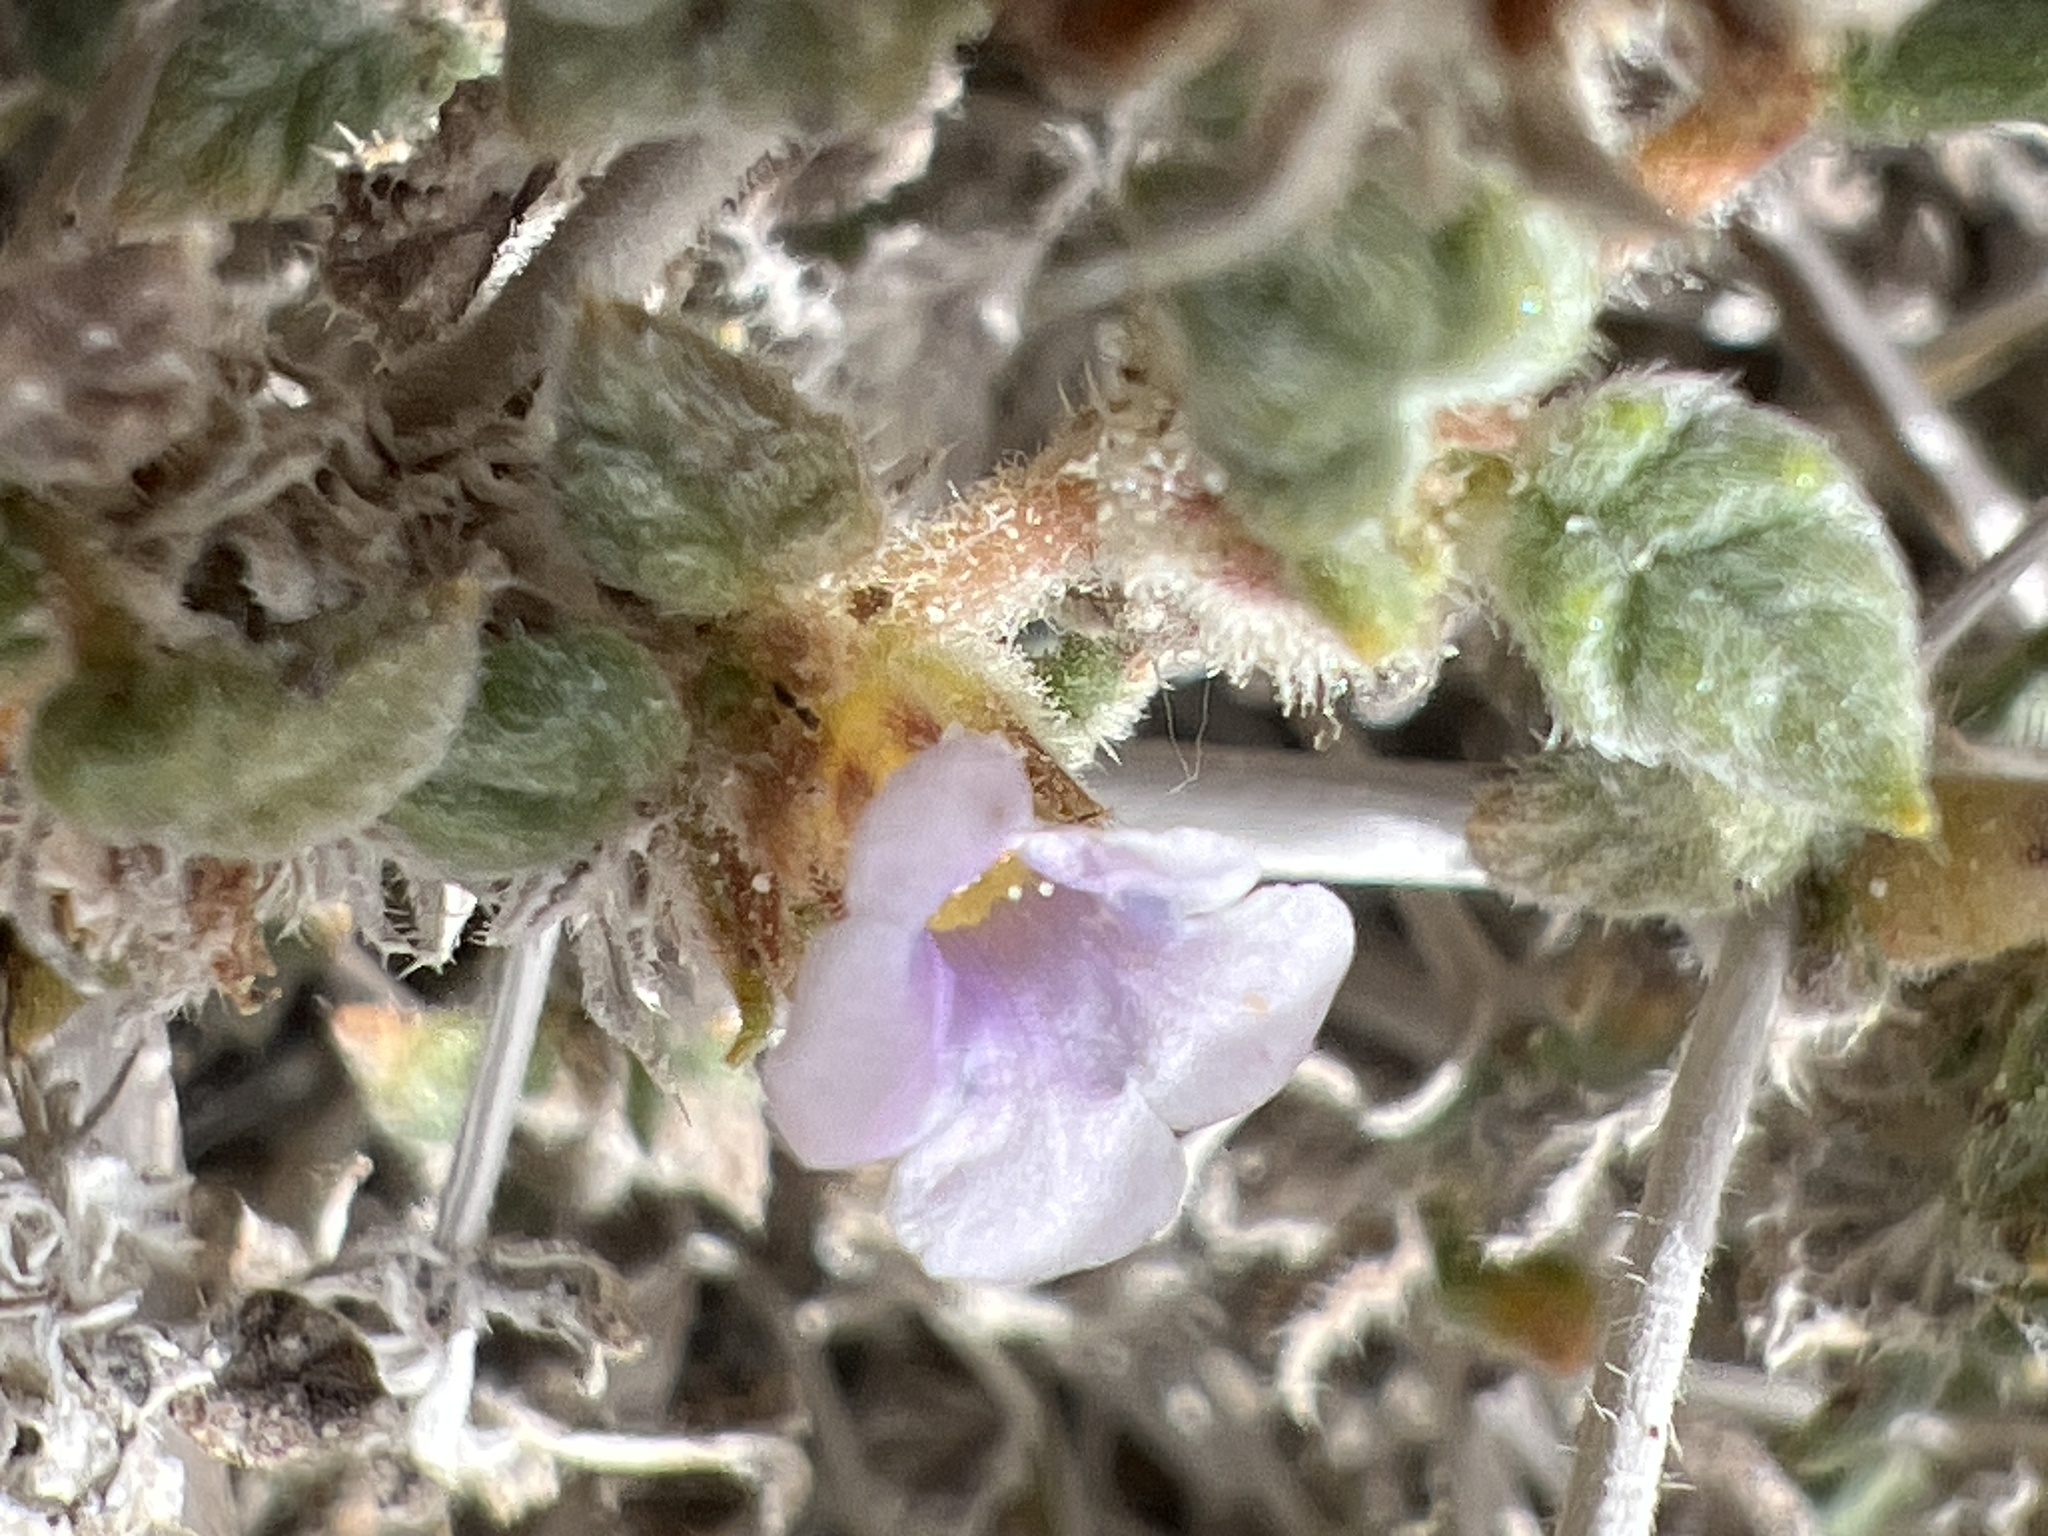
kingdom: Plantae
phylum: Tracheophyta
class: Magnoliopsida
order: Boraginales
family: Ehretiaceae
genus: Tiquilia
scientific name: Tiquilia palmeri
